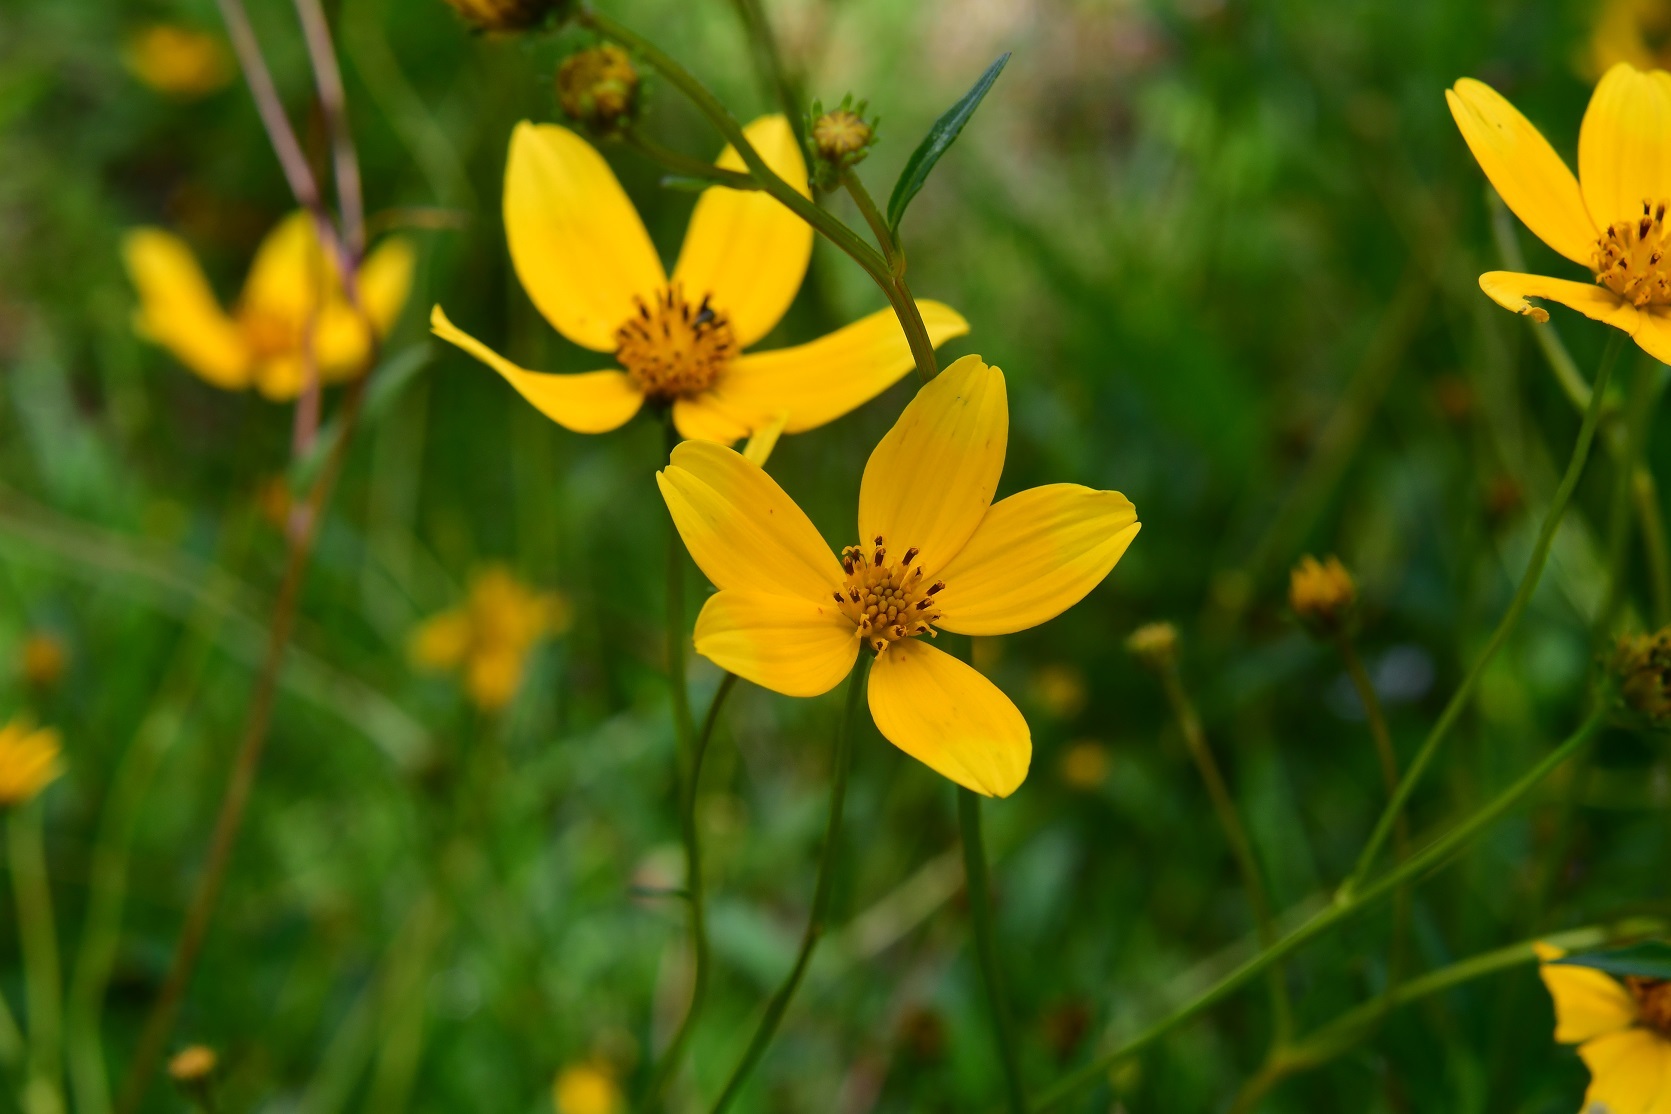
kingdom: Plantae
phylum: Tracheophyta
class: Magnoliopsida
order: Asterales
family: Asteraceae
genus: Bidens
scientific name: Bidens aurea
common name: Arizona beggar-ticks
